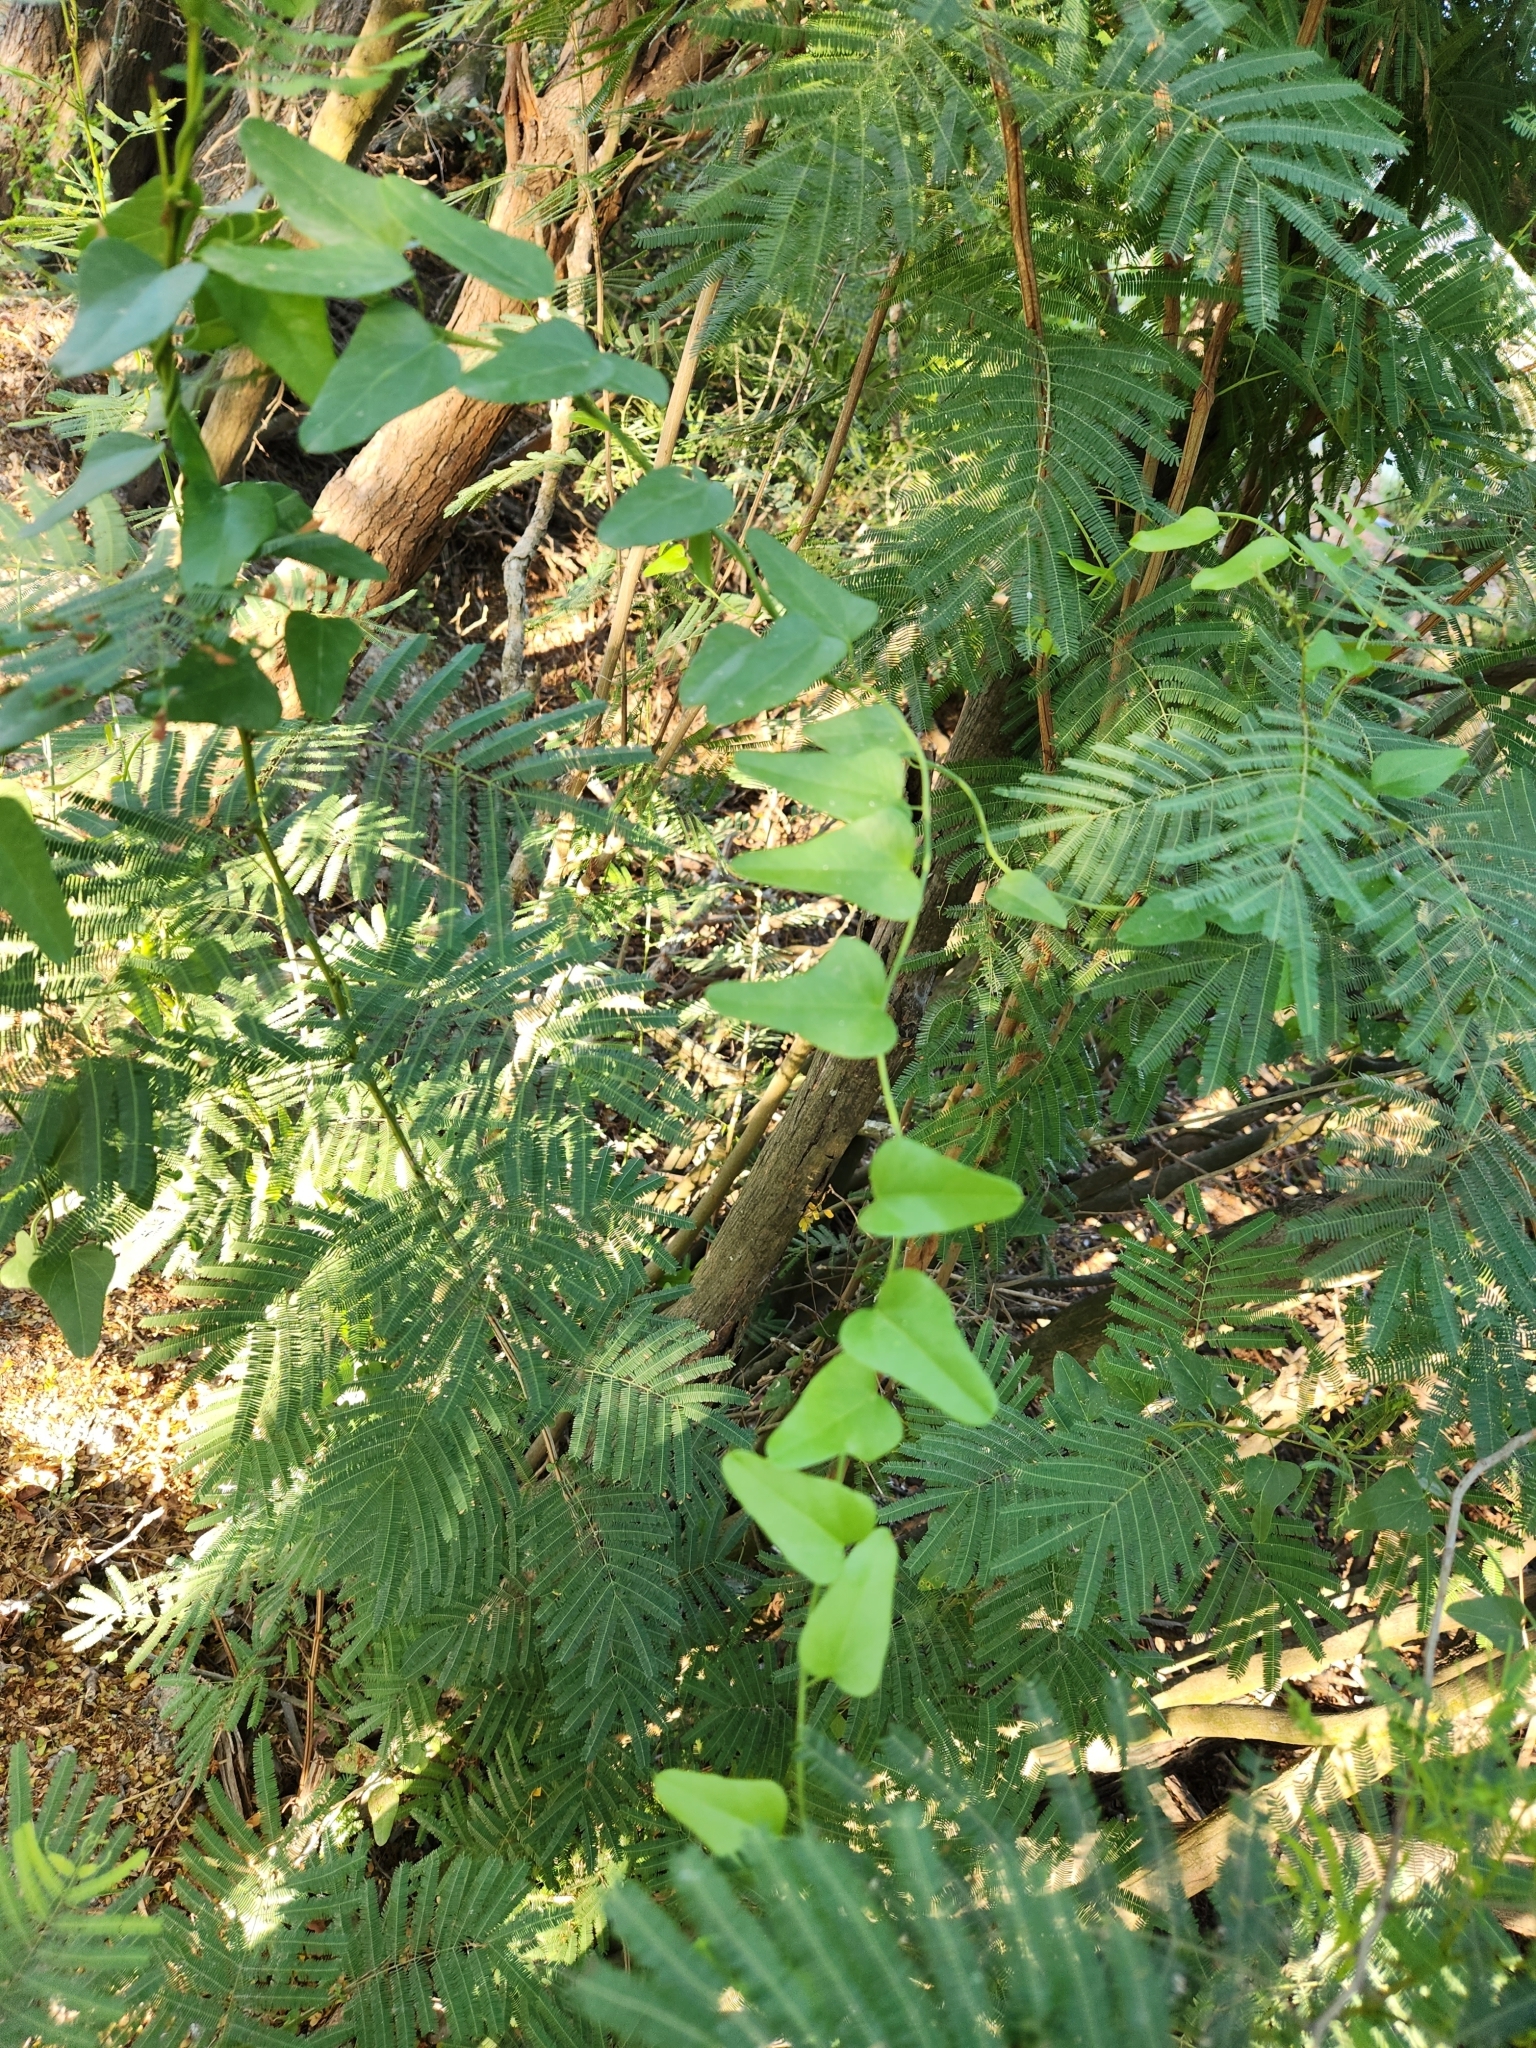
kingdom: Plantae
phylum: Tracheophyta
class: Magnoliopsida
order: Ranunculales
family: Menispermaceae
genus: Cocculus
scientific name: Cocculus diversifolius
